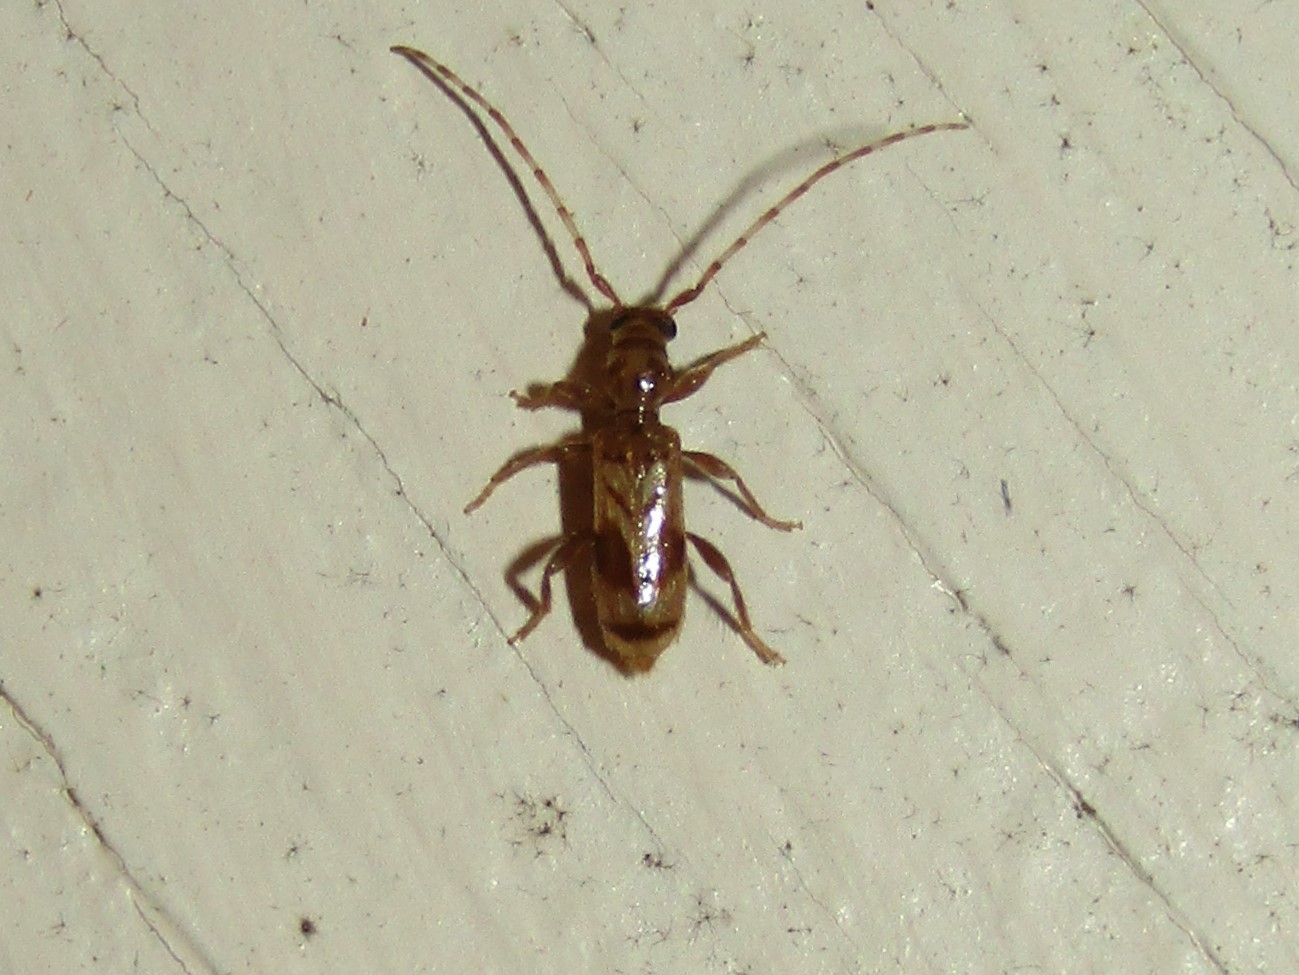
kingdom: Animalia
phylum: Arthropoda
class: Insecta
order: Coleoptera
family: Cerambycidae
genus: Obrium
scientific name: Obrium maculatum
